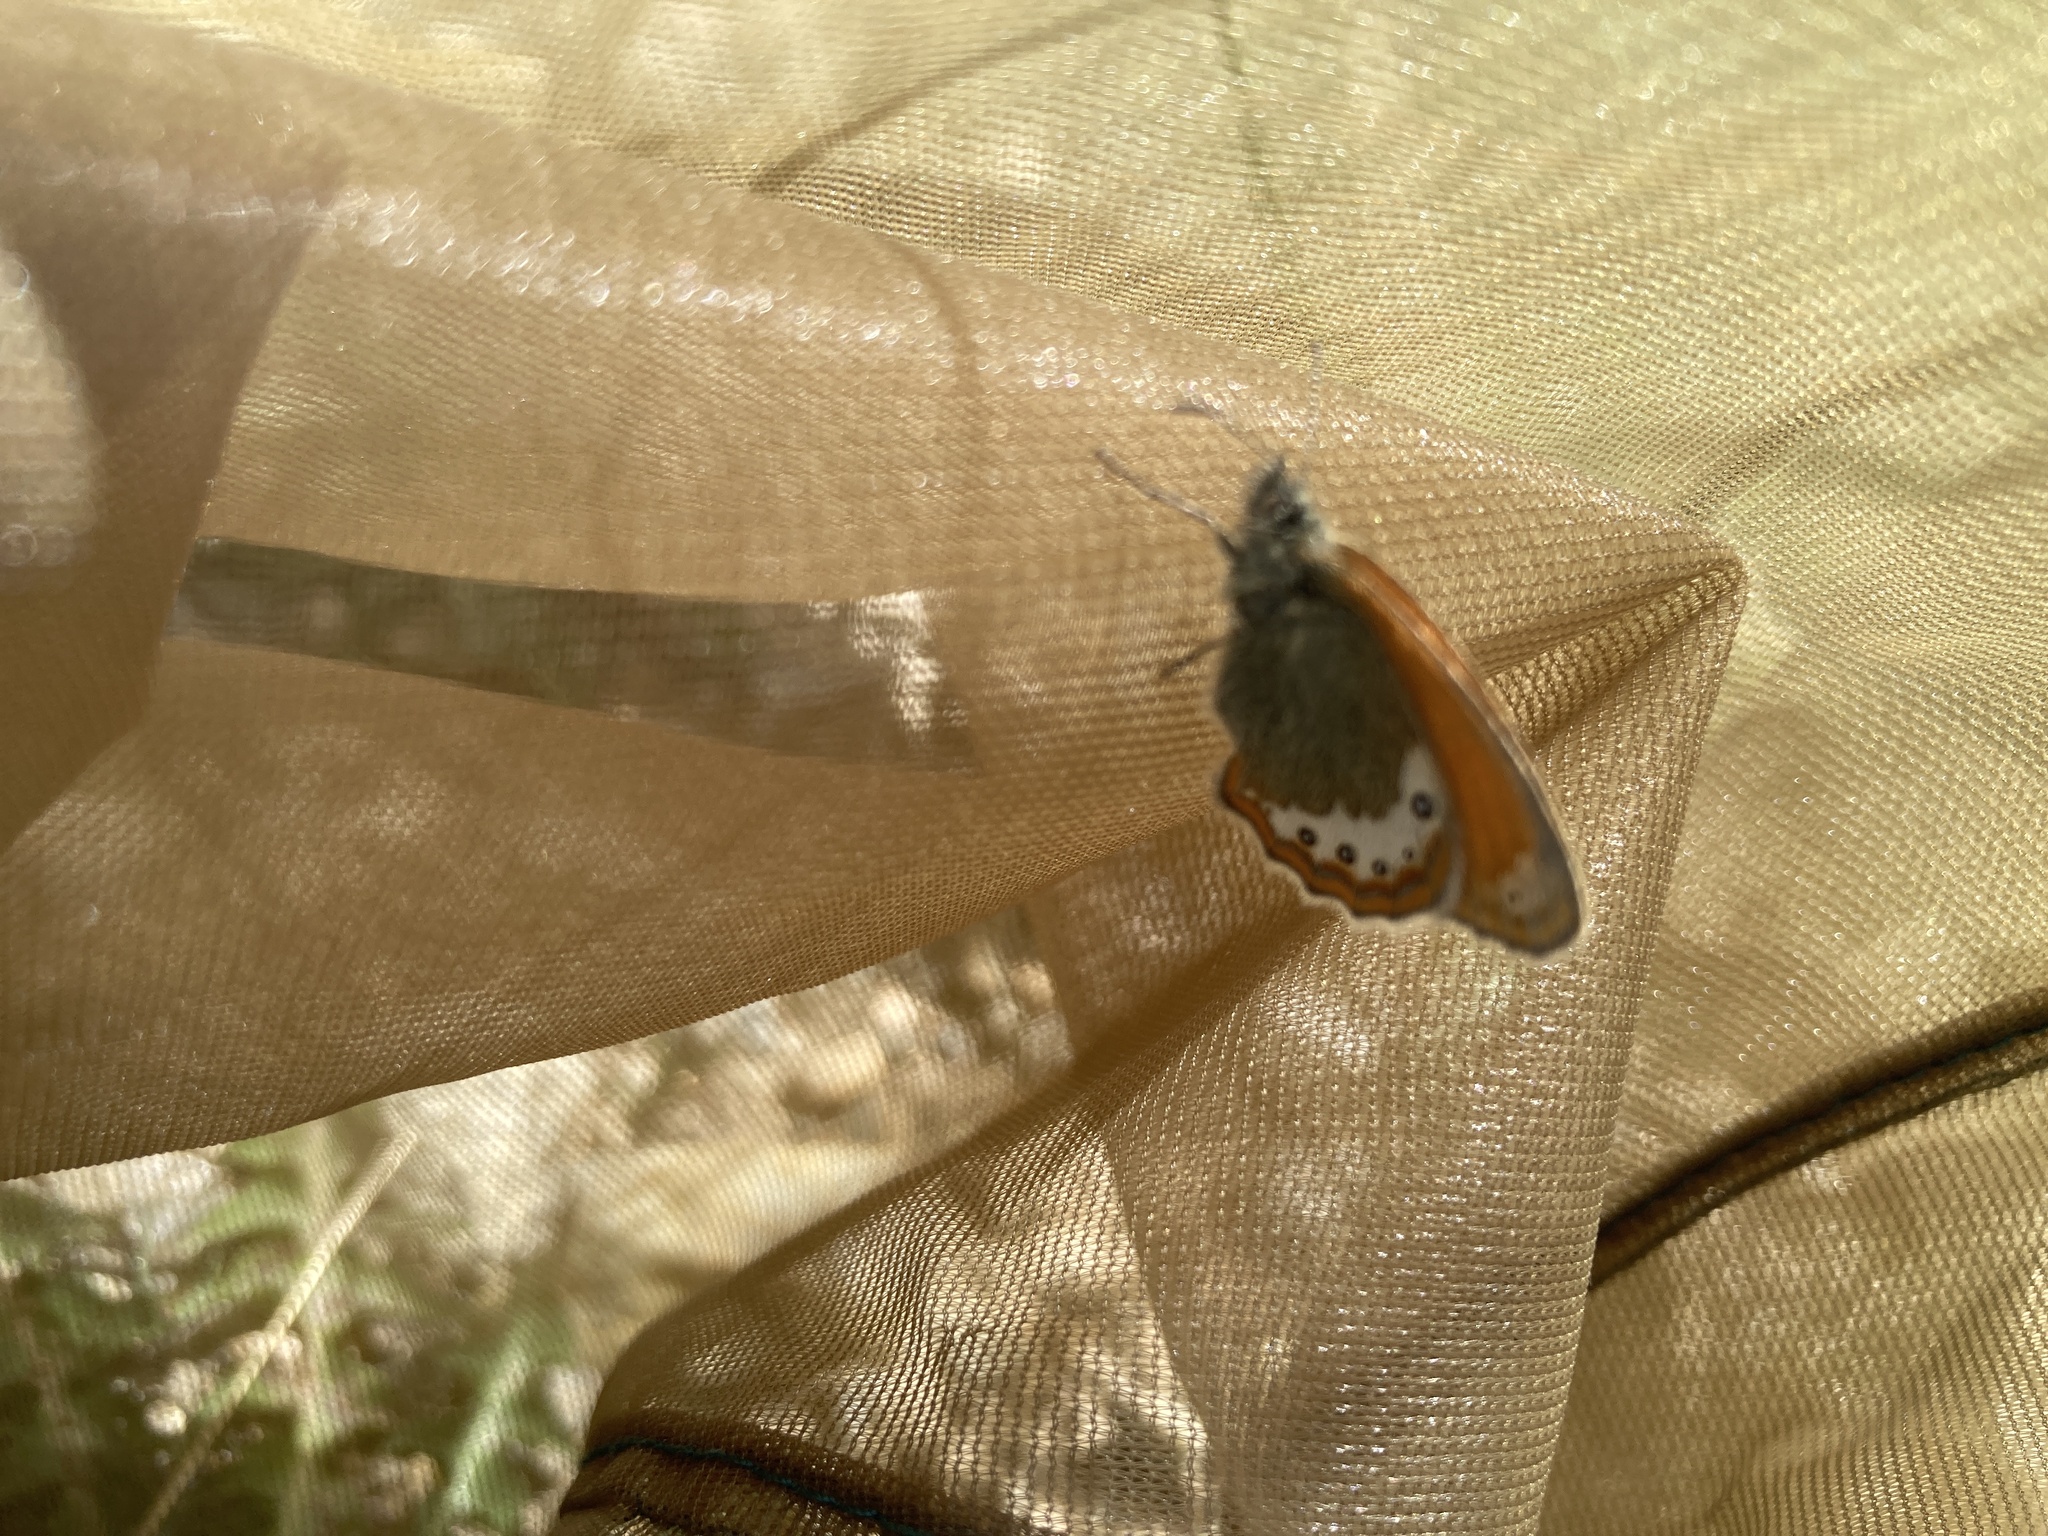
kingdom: Animalia
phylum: Arthropoda
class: Insecta
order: Lepidoptera
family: Nymphalidae
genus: Coenonympha
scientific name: Coenonympha
